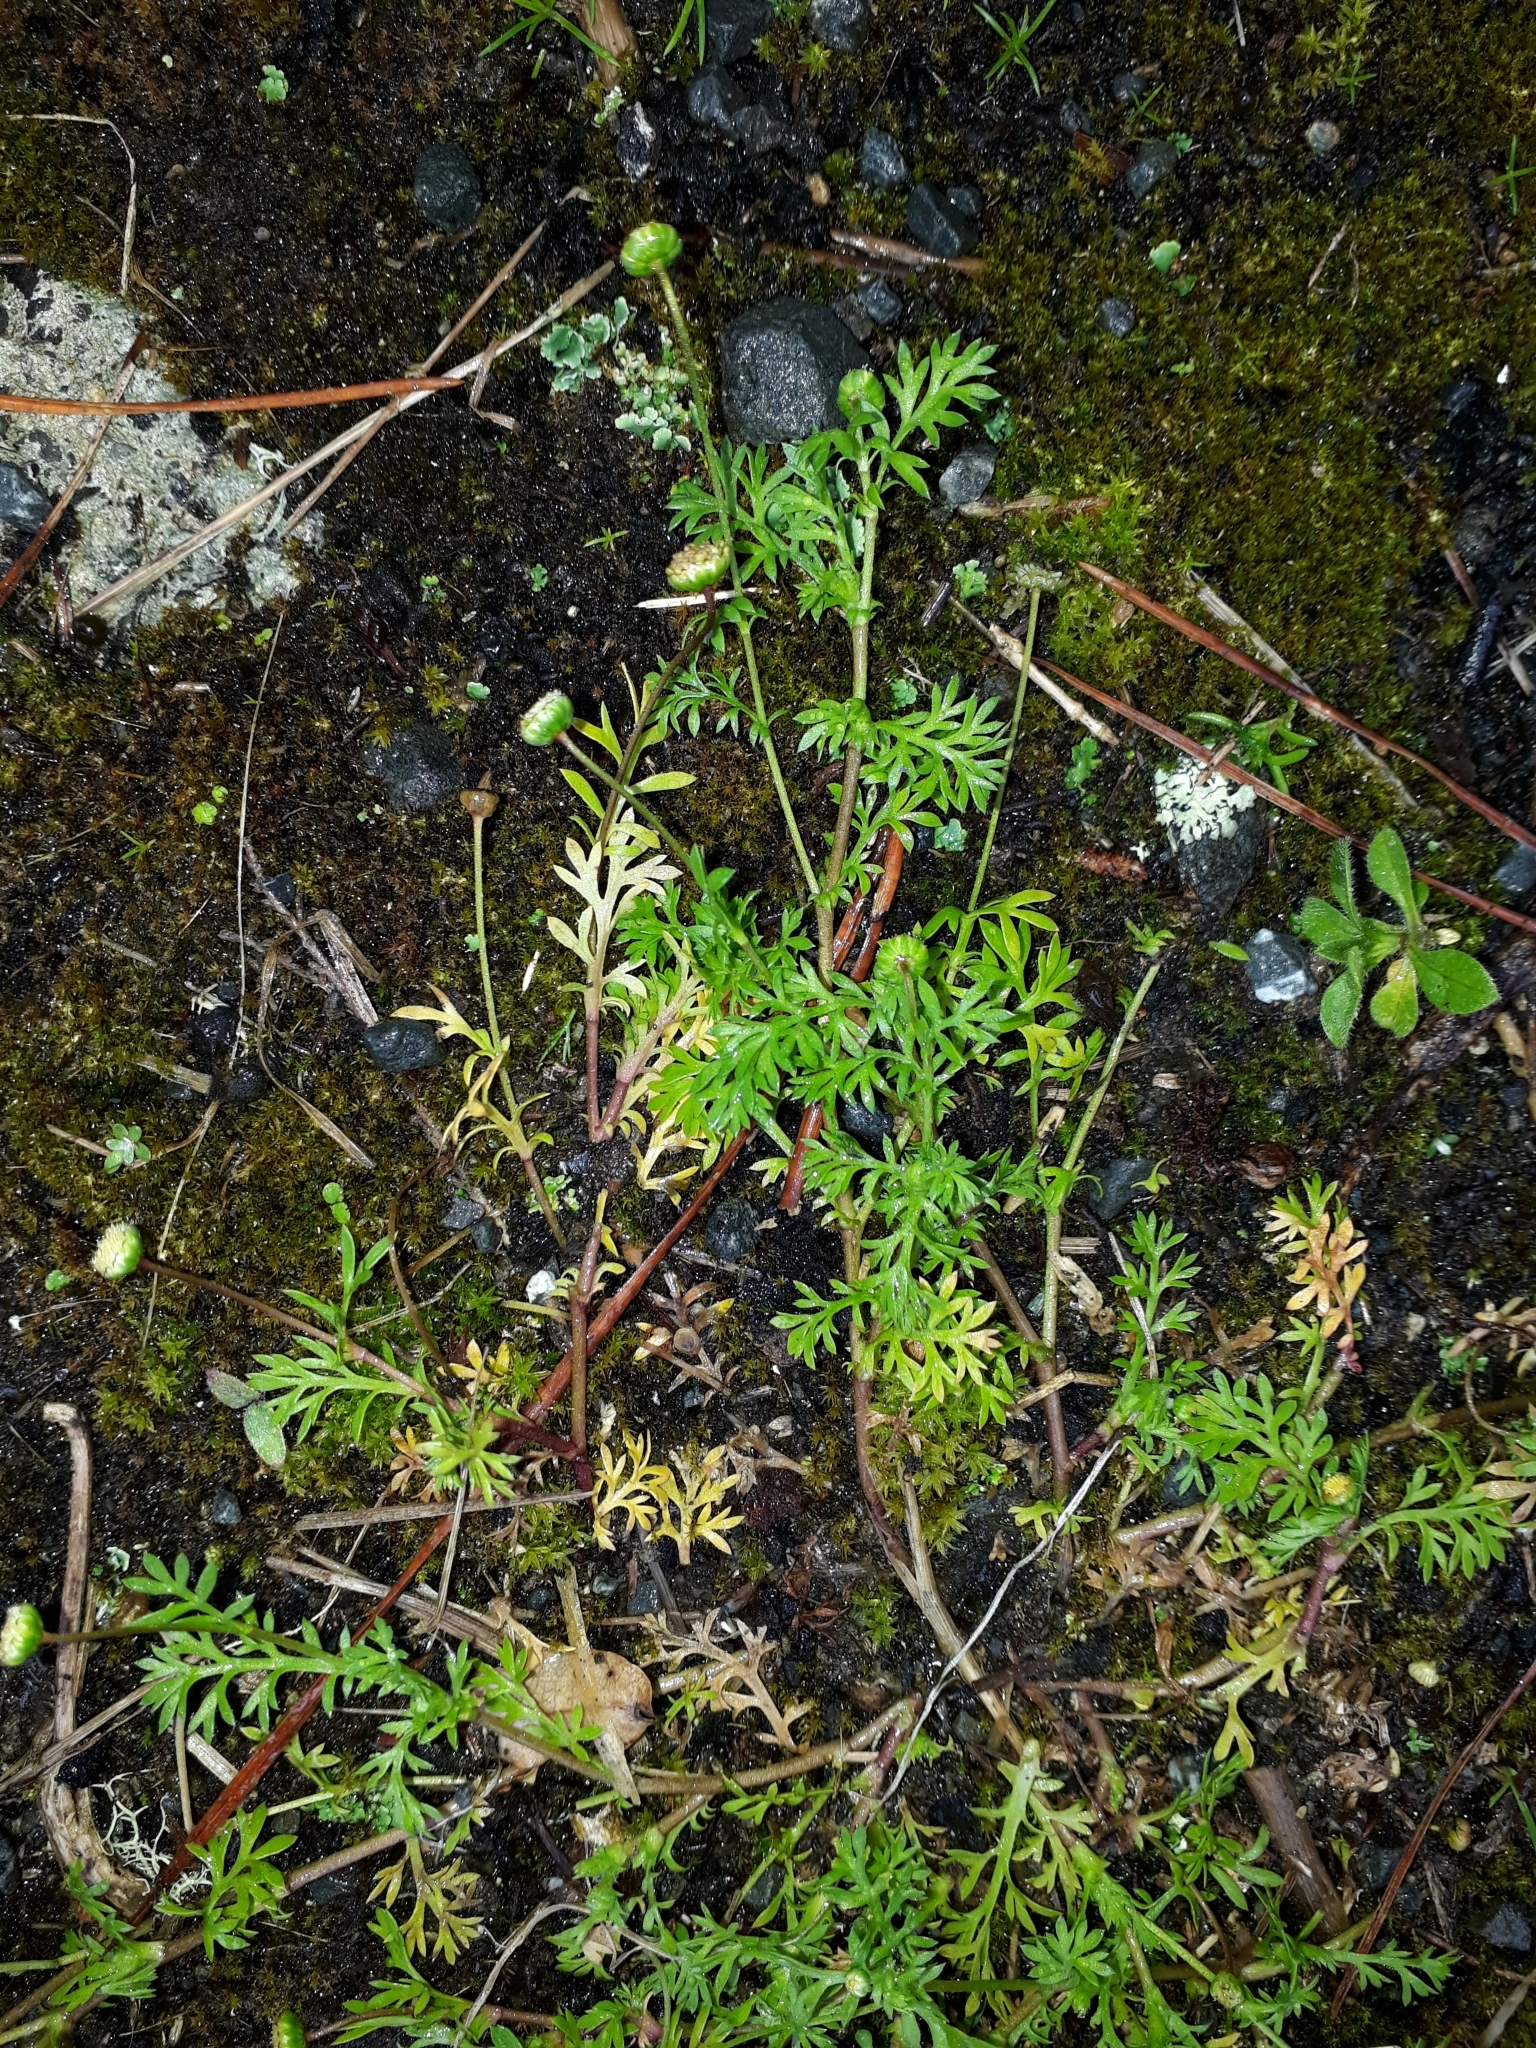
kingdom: Plantae
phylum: Tracheophyta
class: Magnoliopsida
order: Asterales
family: Asteraceae
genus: Cotula
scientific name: Cotula australis
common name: Australian waterbuttons
